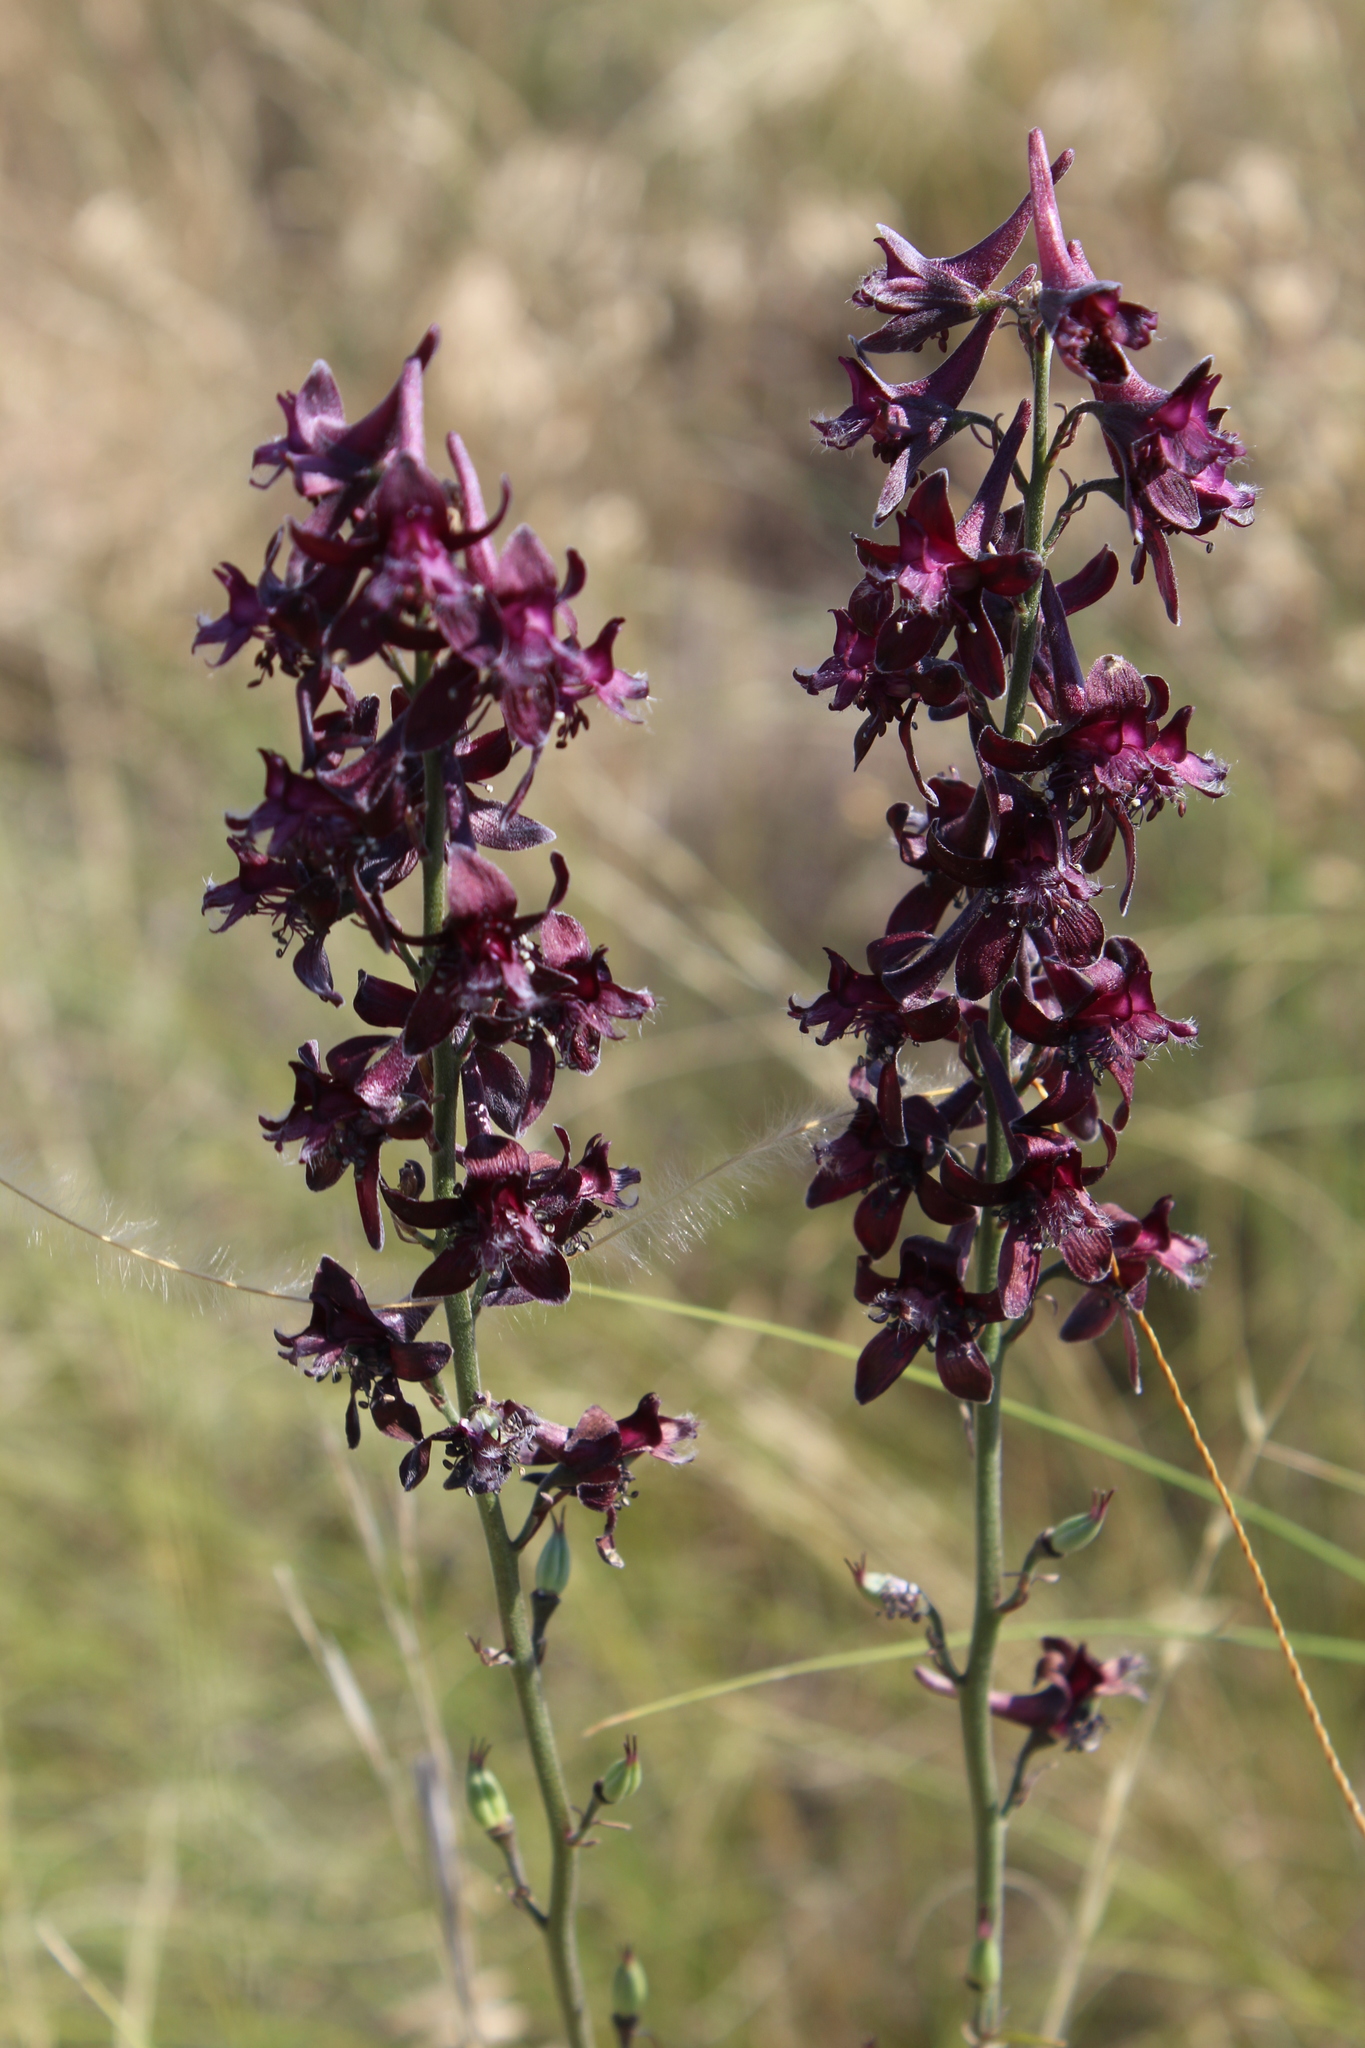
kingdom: Plantae
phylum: Tracheophyta
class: Magnoliopsida
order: Ranunculales
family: Ranunculaceae
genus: Delphinium
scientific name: Delphinium puniceum
